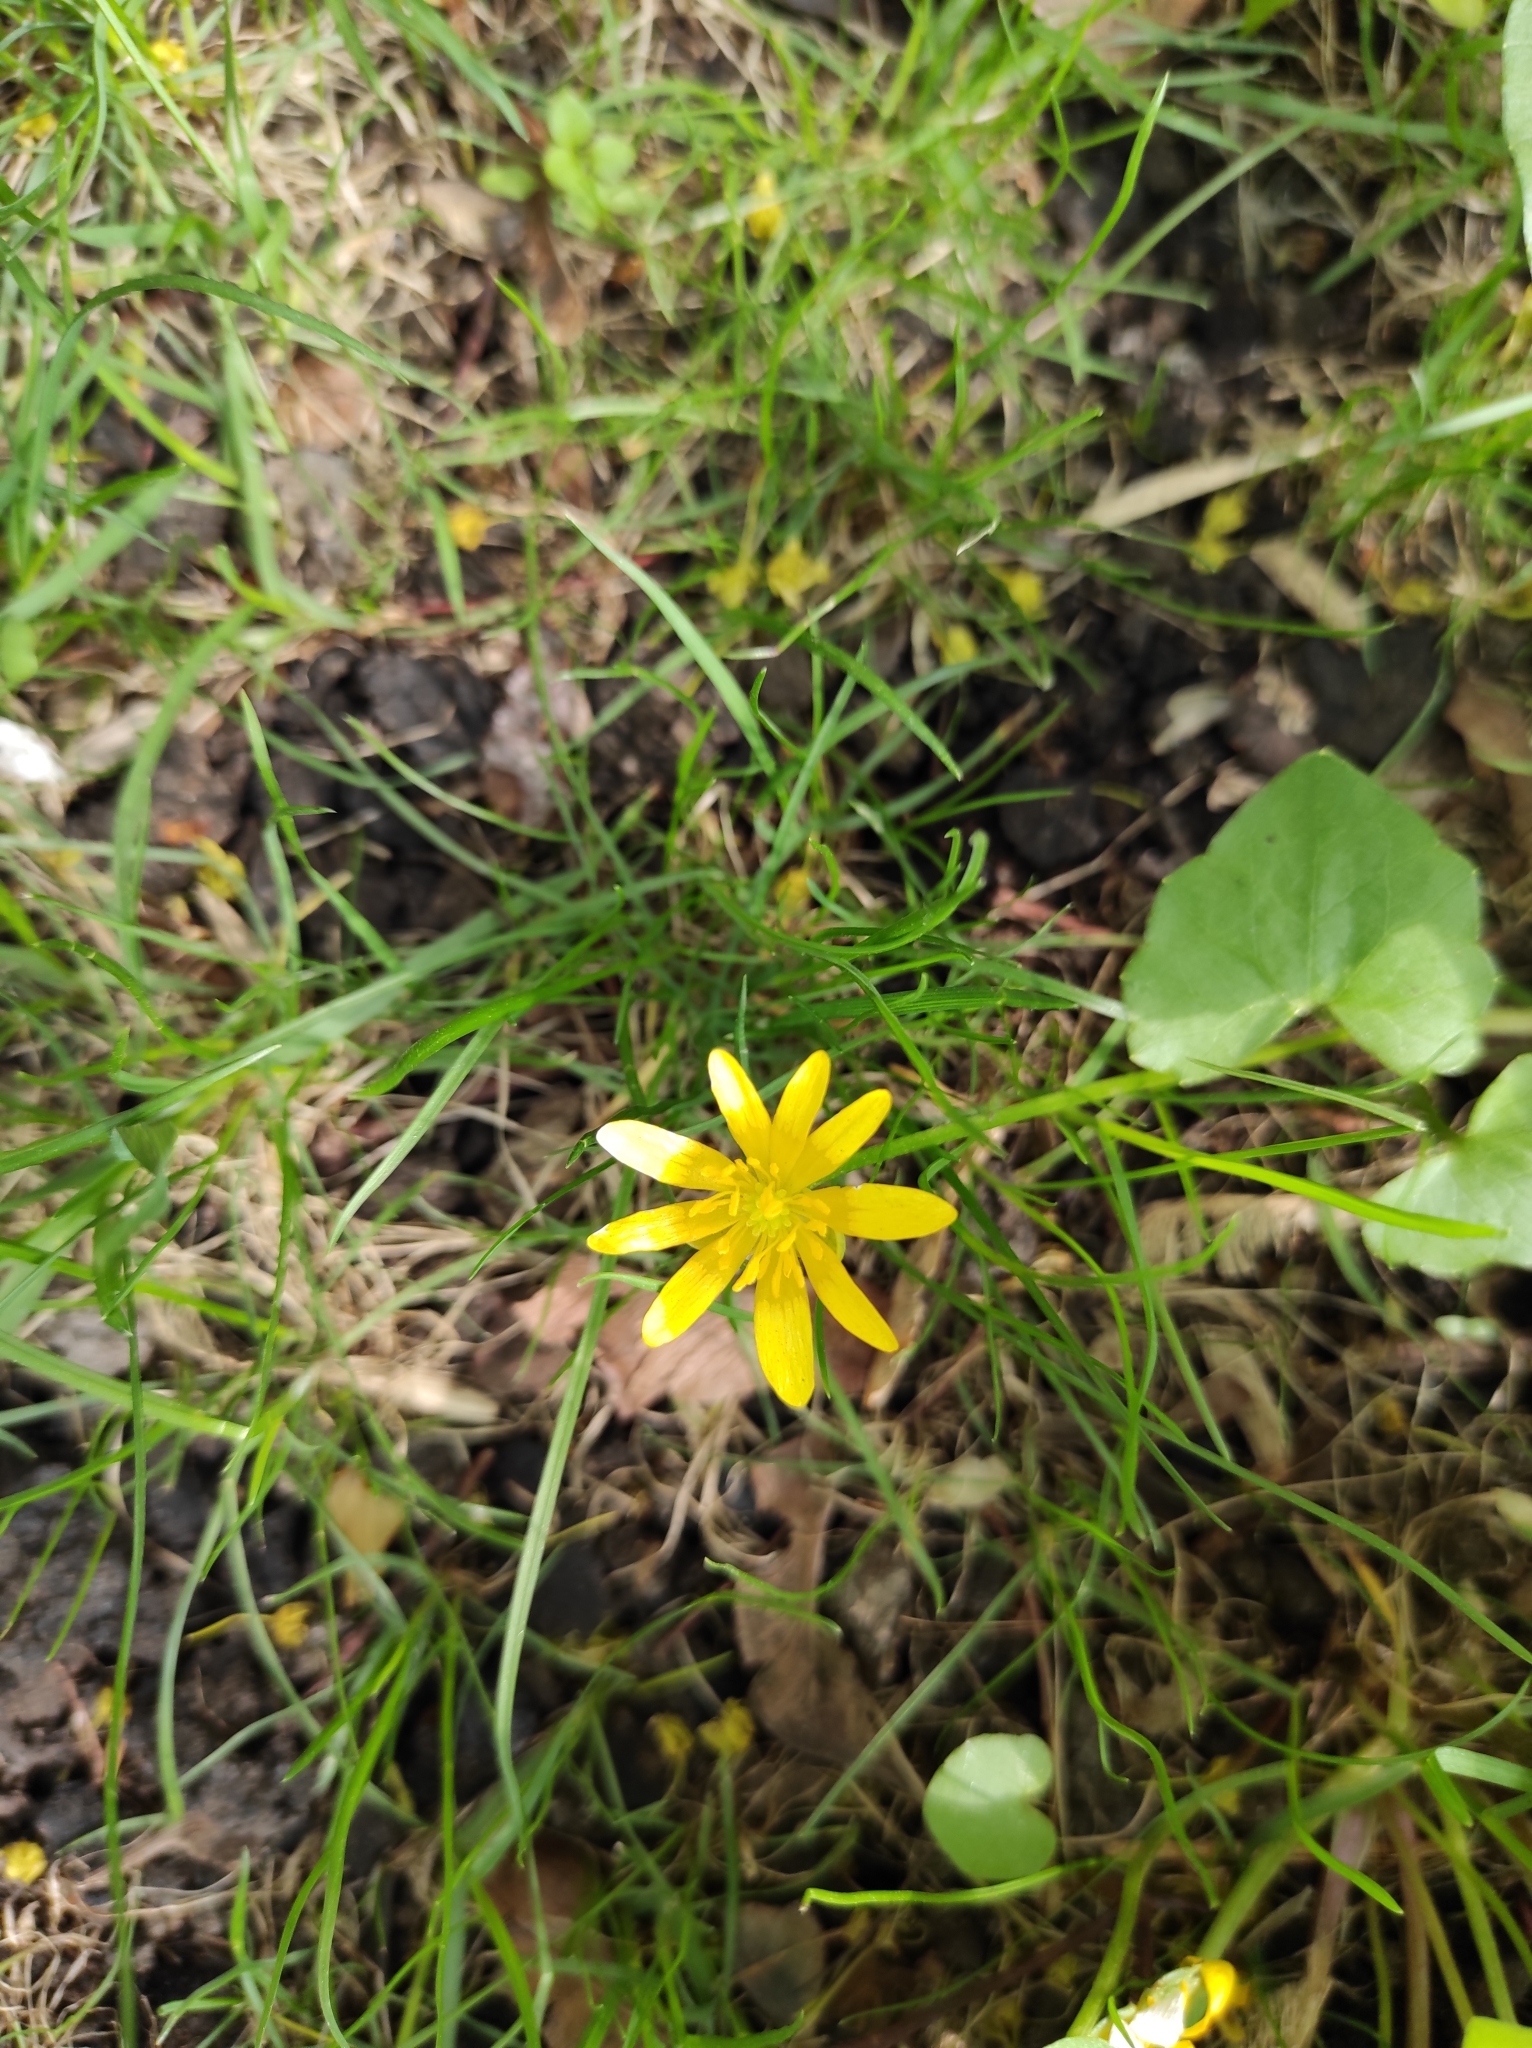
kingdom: Plantae
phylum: Tracheophyta
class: Magnoliopsida
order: Ranunculales
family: Ranunculaceae
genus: Ficaria
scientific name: Ficaria verna
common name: Lesser celandine
